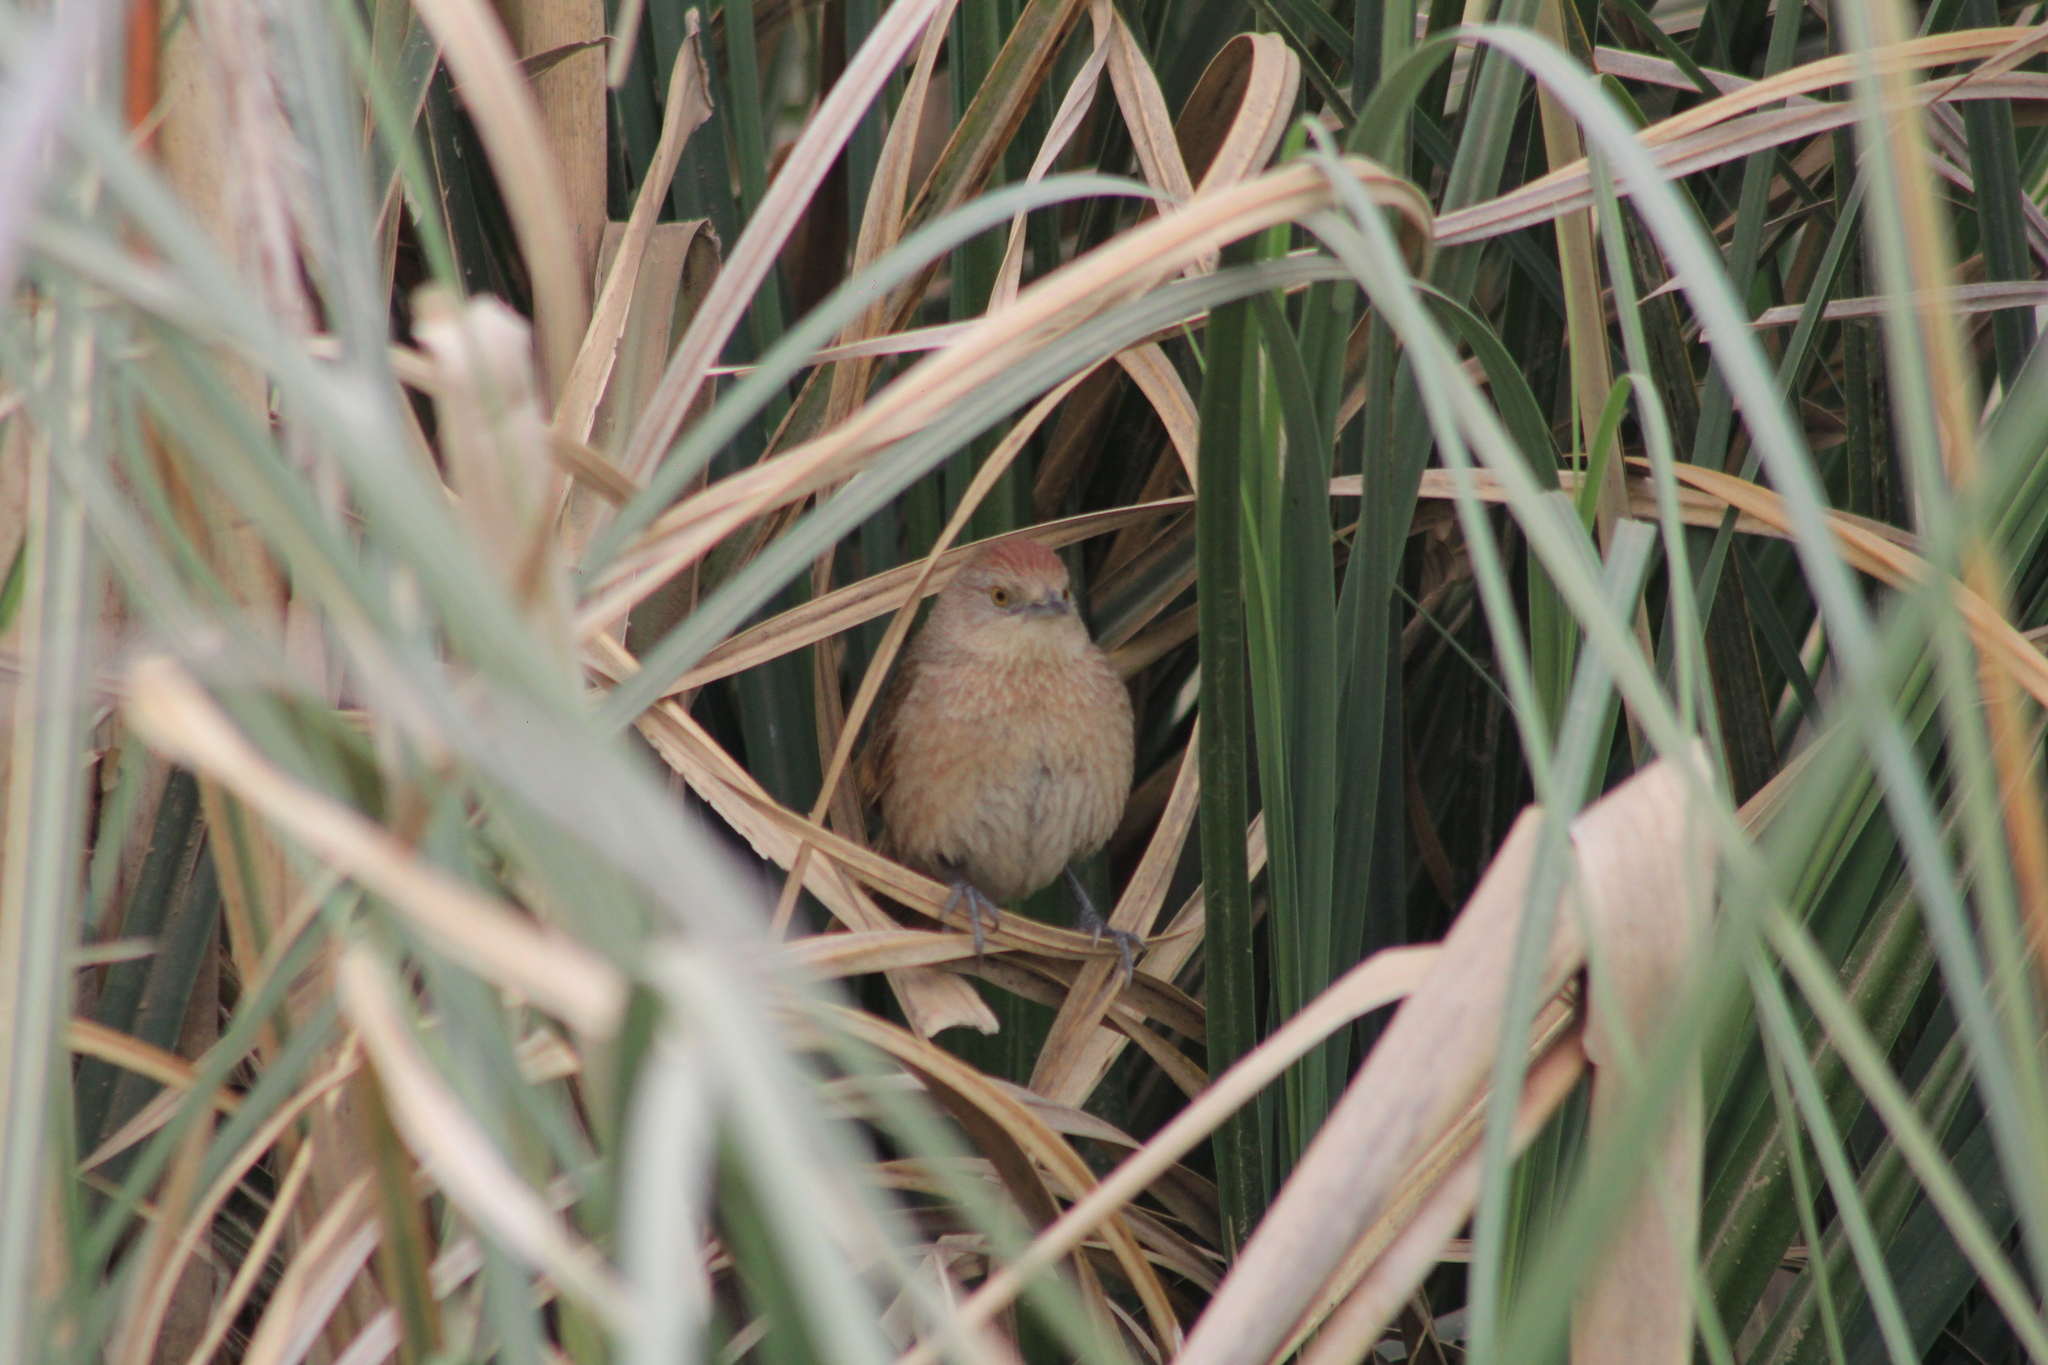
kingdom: Animalia
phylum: Chordata
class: Aves
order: Passeriformes
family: Furnariidae
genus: Phacellodomus
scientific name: Phacellodomus striaticollis
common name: Freckle-breasted thornbird
